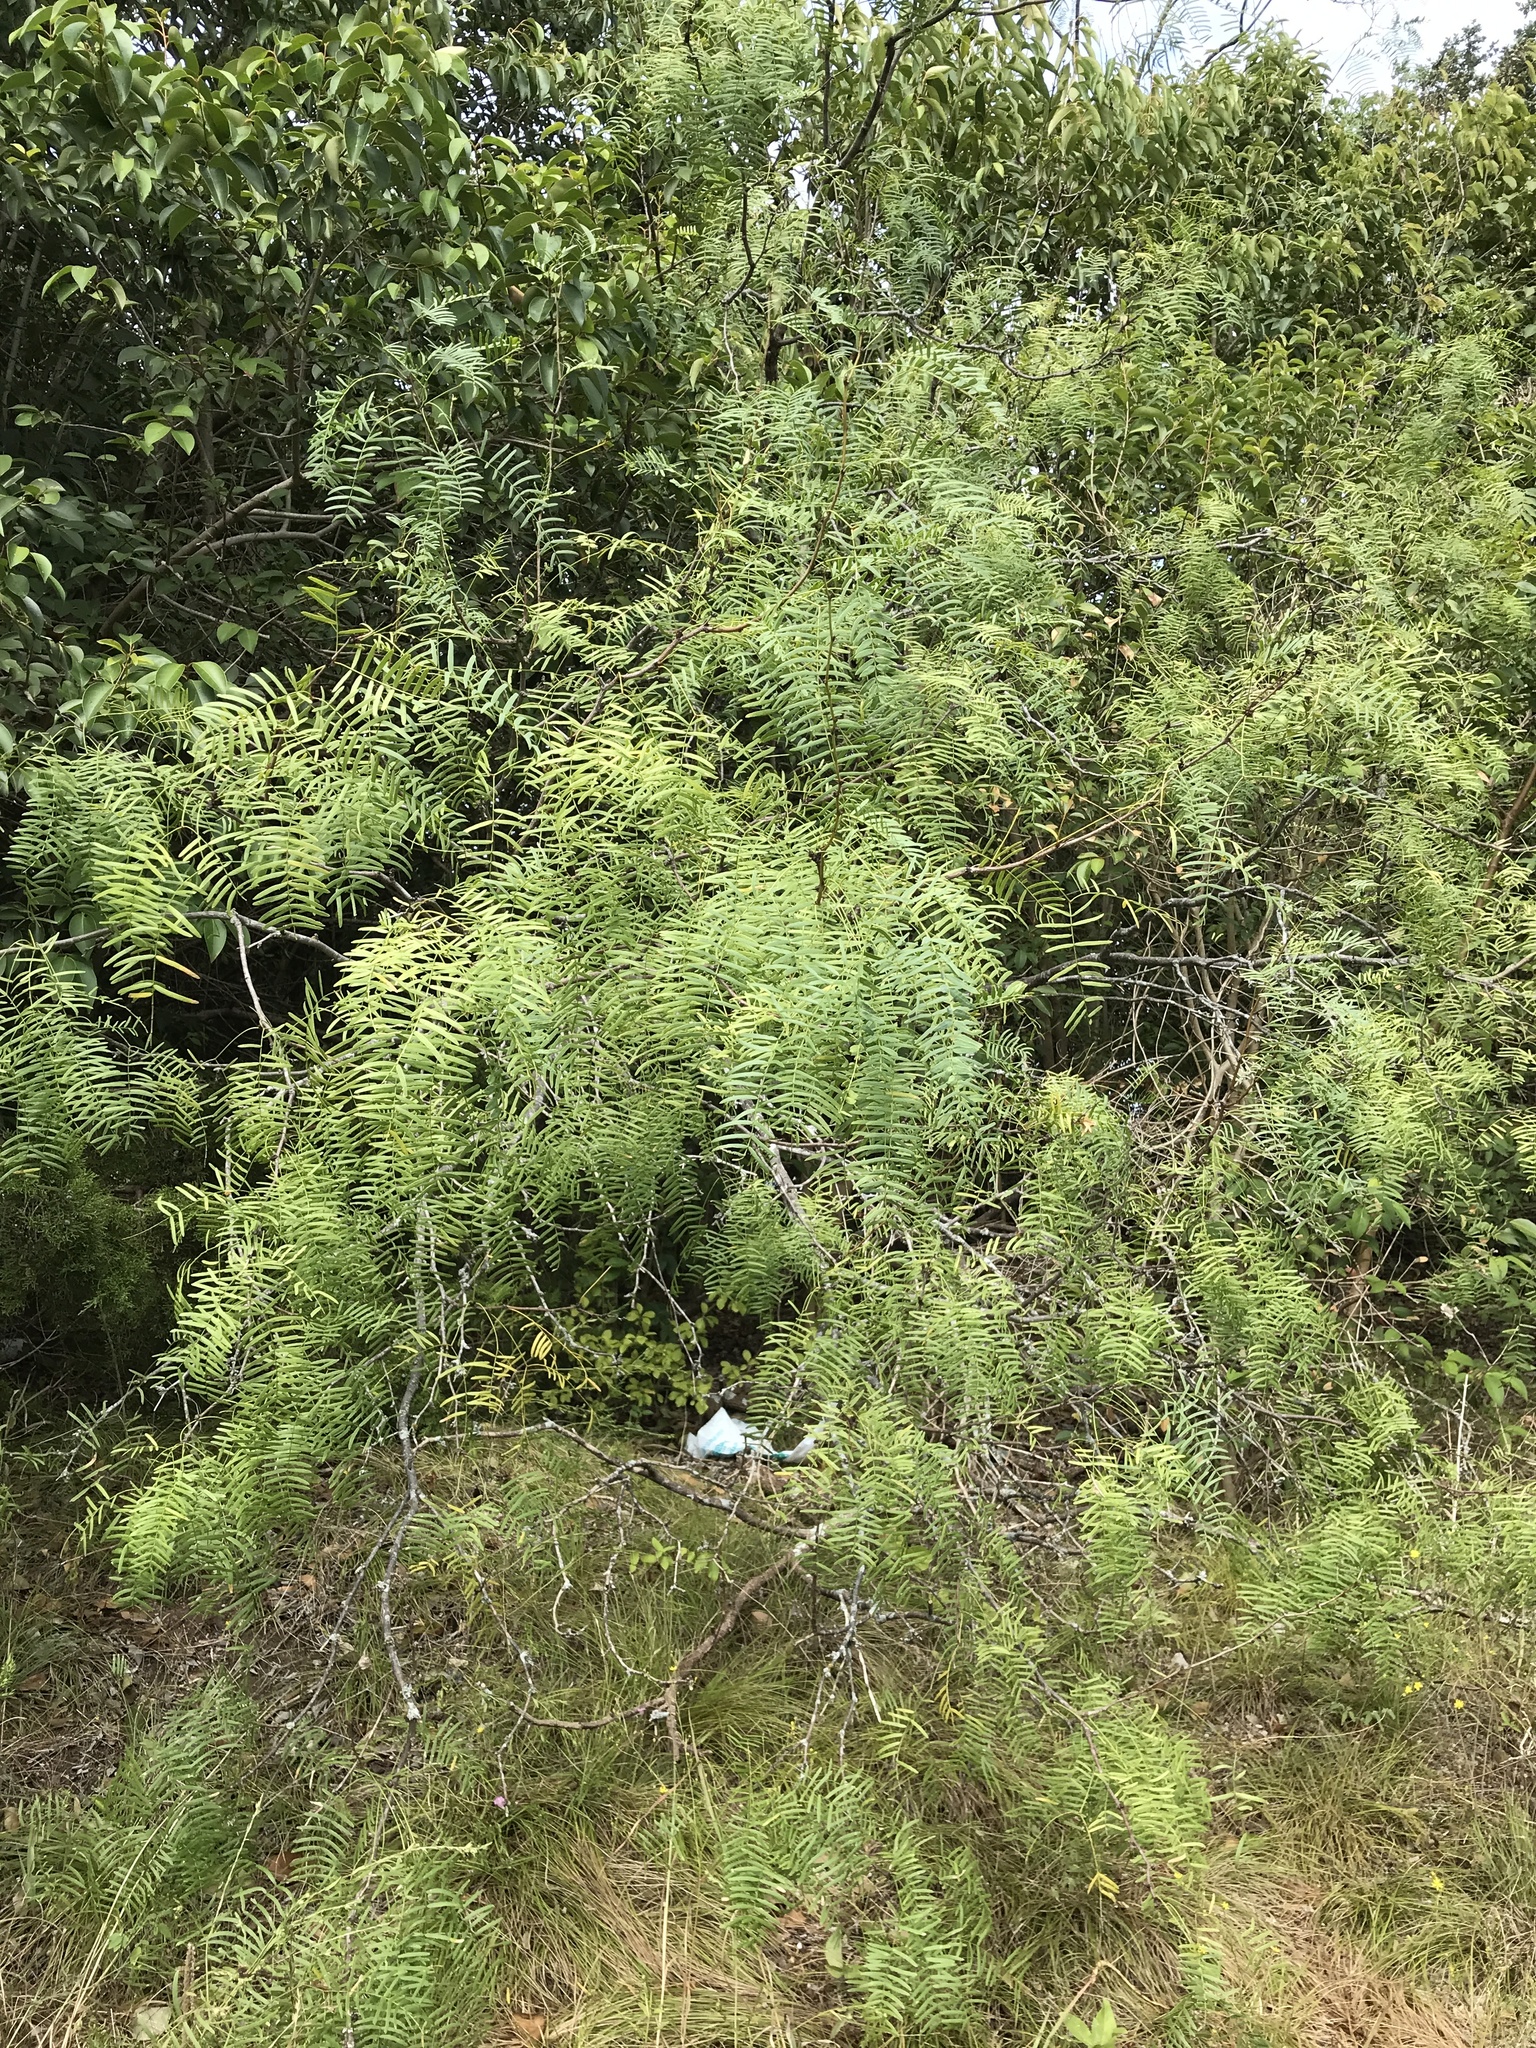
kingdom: Plantae
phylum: Tracheophyta
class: Magnoliopsida
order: Fabales
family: Fabaceae
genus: Prosopis
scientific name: Prosopis glandulosa
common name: Honey mesquite
